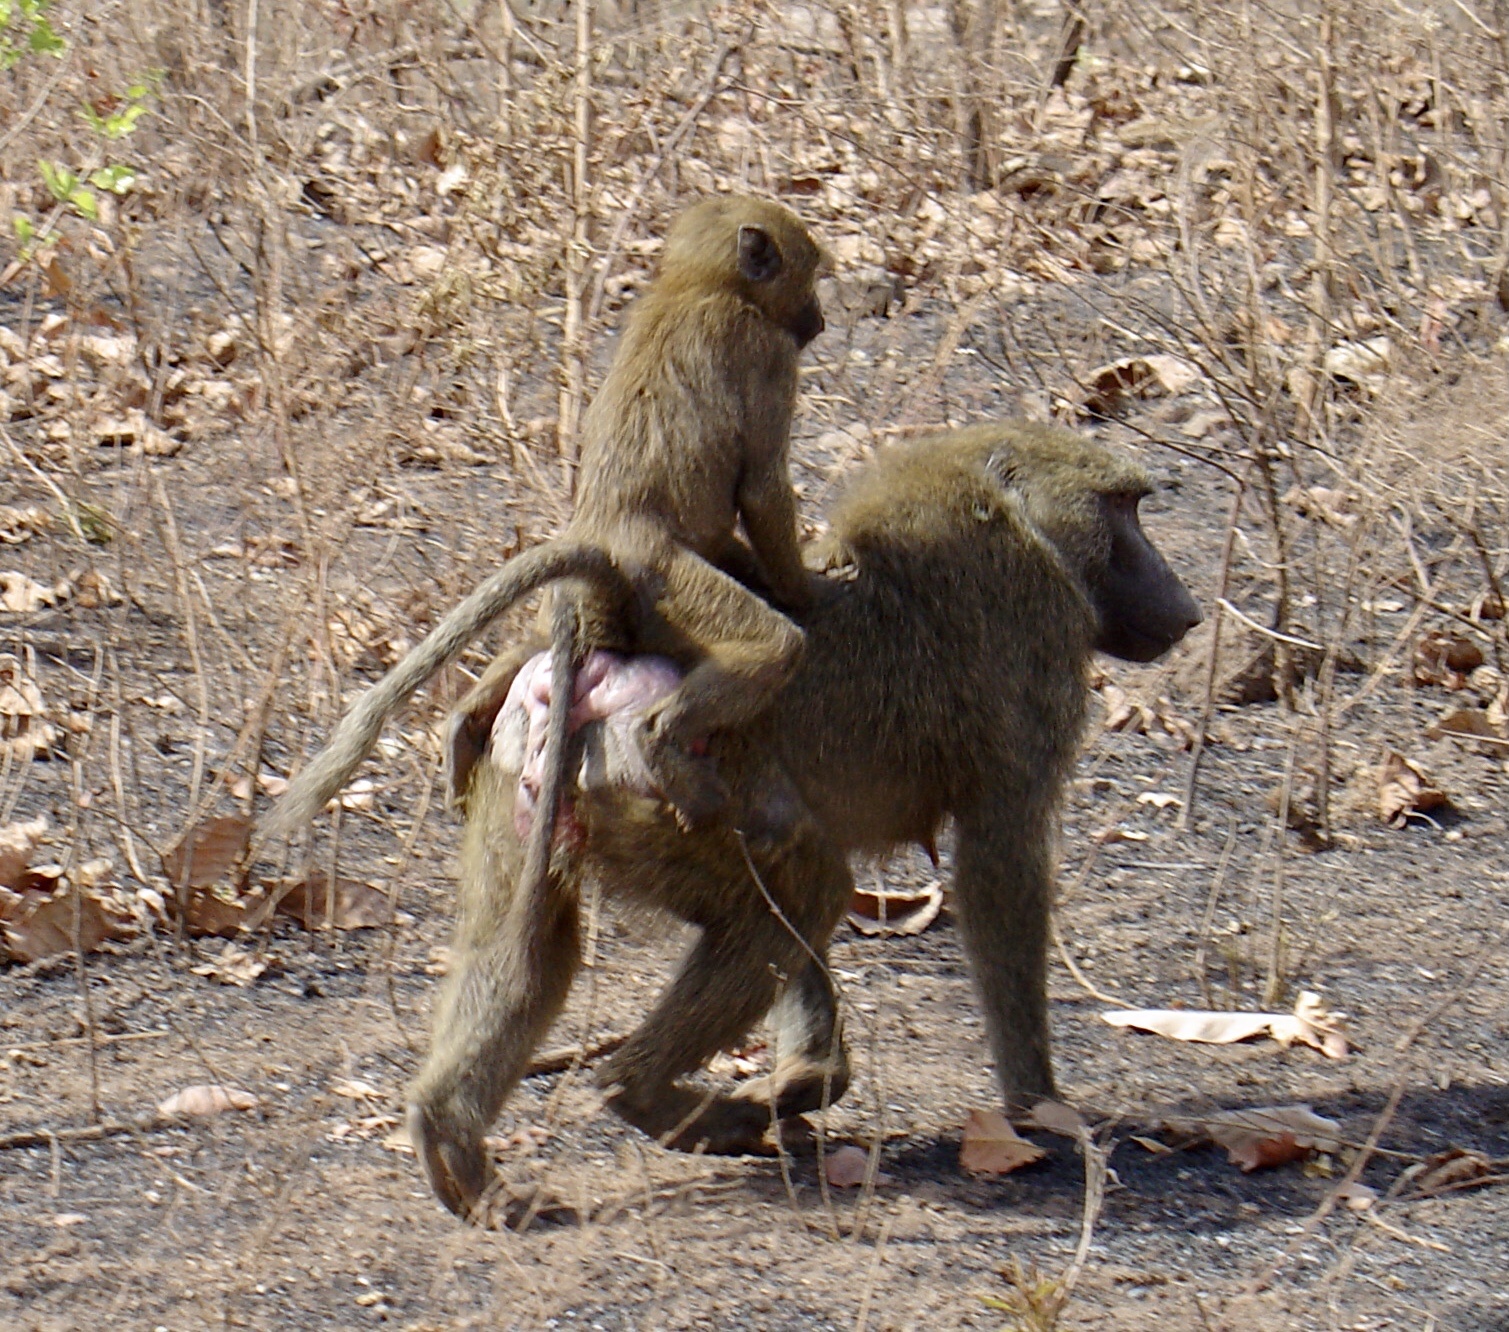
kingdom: Animalia
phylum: Chordata
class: Mammalia
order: Primates
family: Cercopithecidae
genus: Papio
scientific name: Papio anubis
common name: Olive baboon
